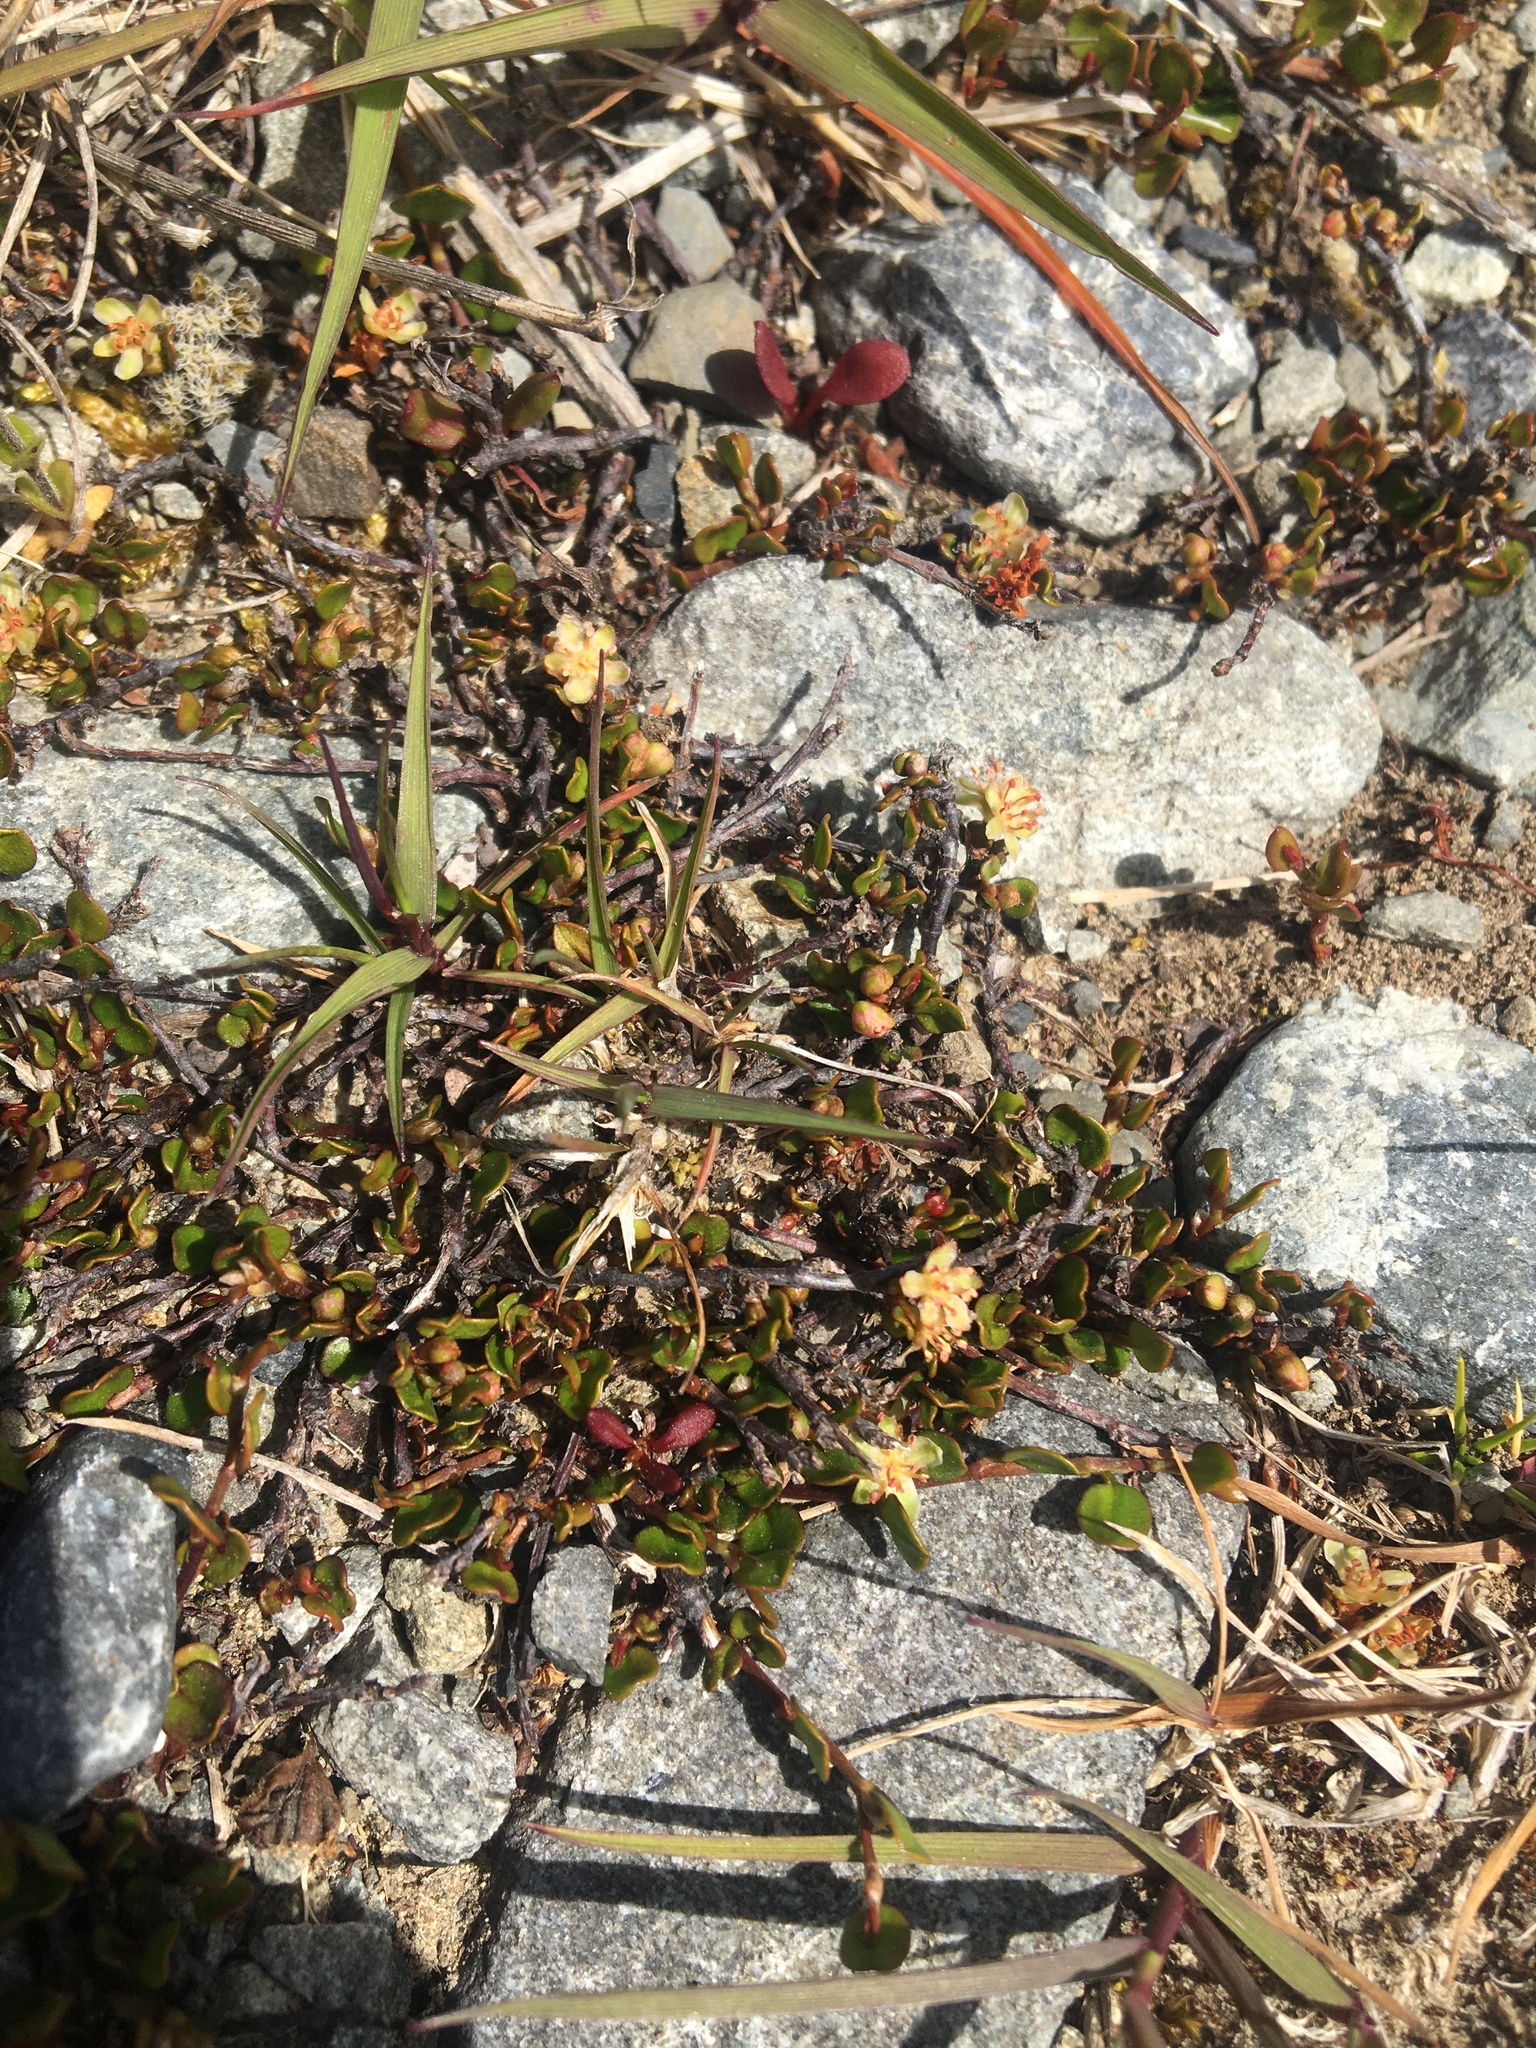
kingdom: Plantae
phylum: Tracheophyta
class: Magnoliopsida
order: Caryophyllales
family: Polygonaceae
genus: Muehlenbeckia
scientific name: Muehlenbeckia axillaris
